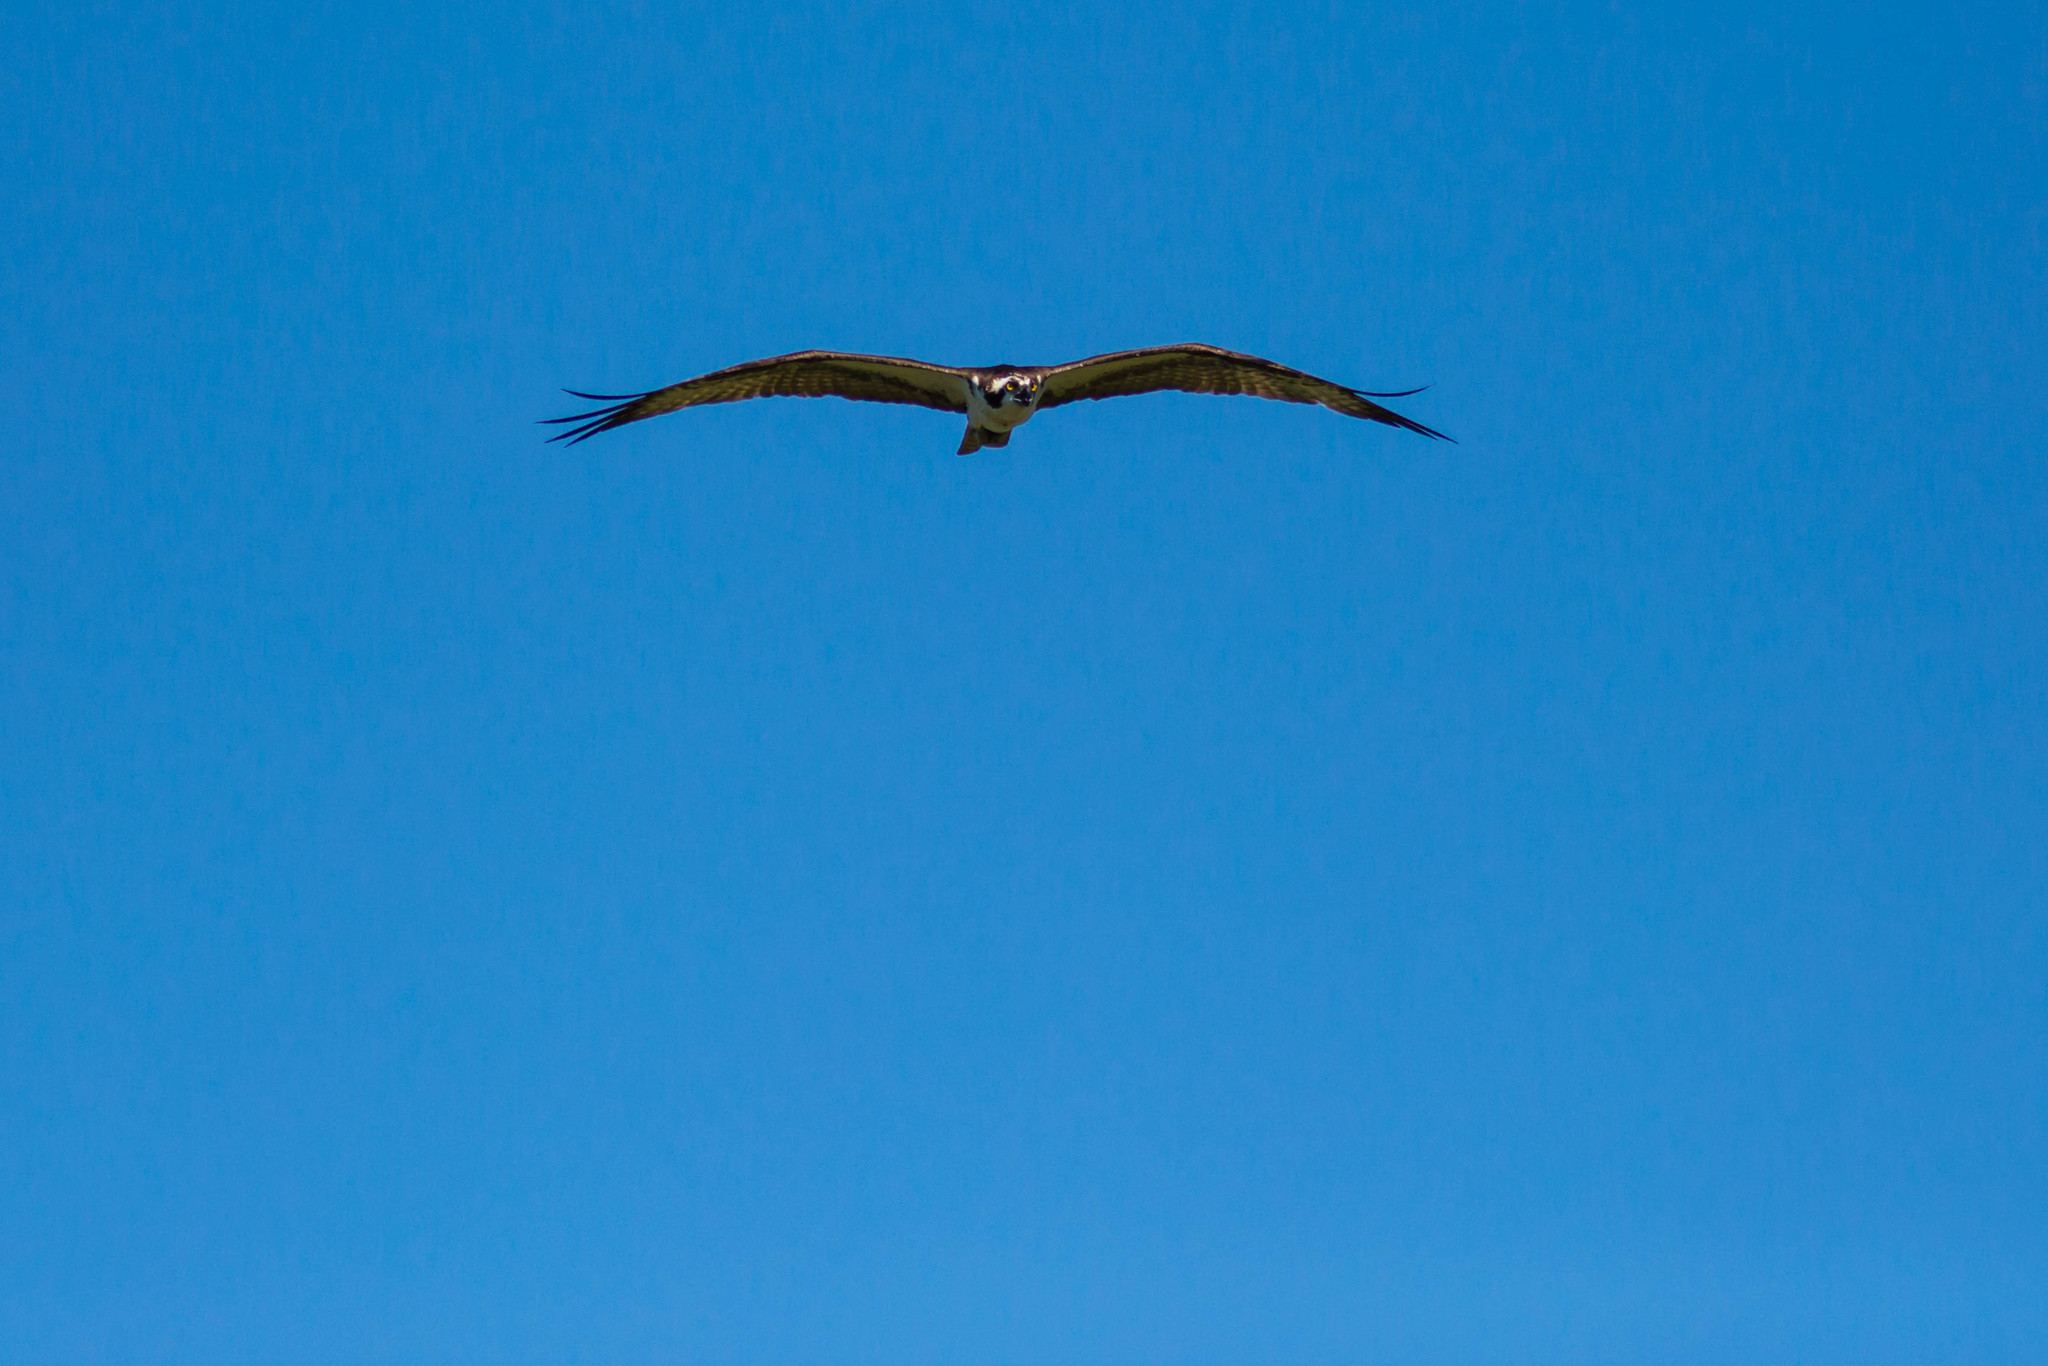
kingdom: Animalia
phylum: Chordata
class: Aves
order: Accipitriformes
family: Pandionidae
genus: Pandion
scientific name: Pandion haliaetus
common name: Osprey
